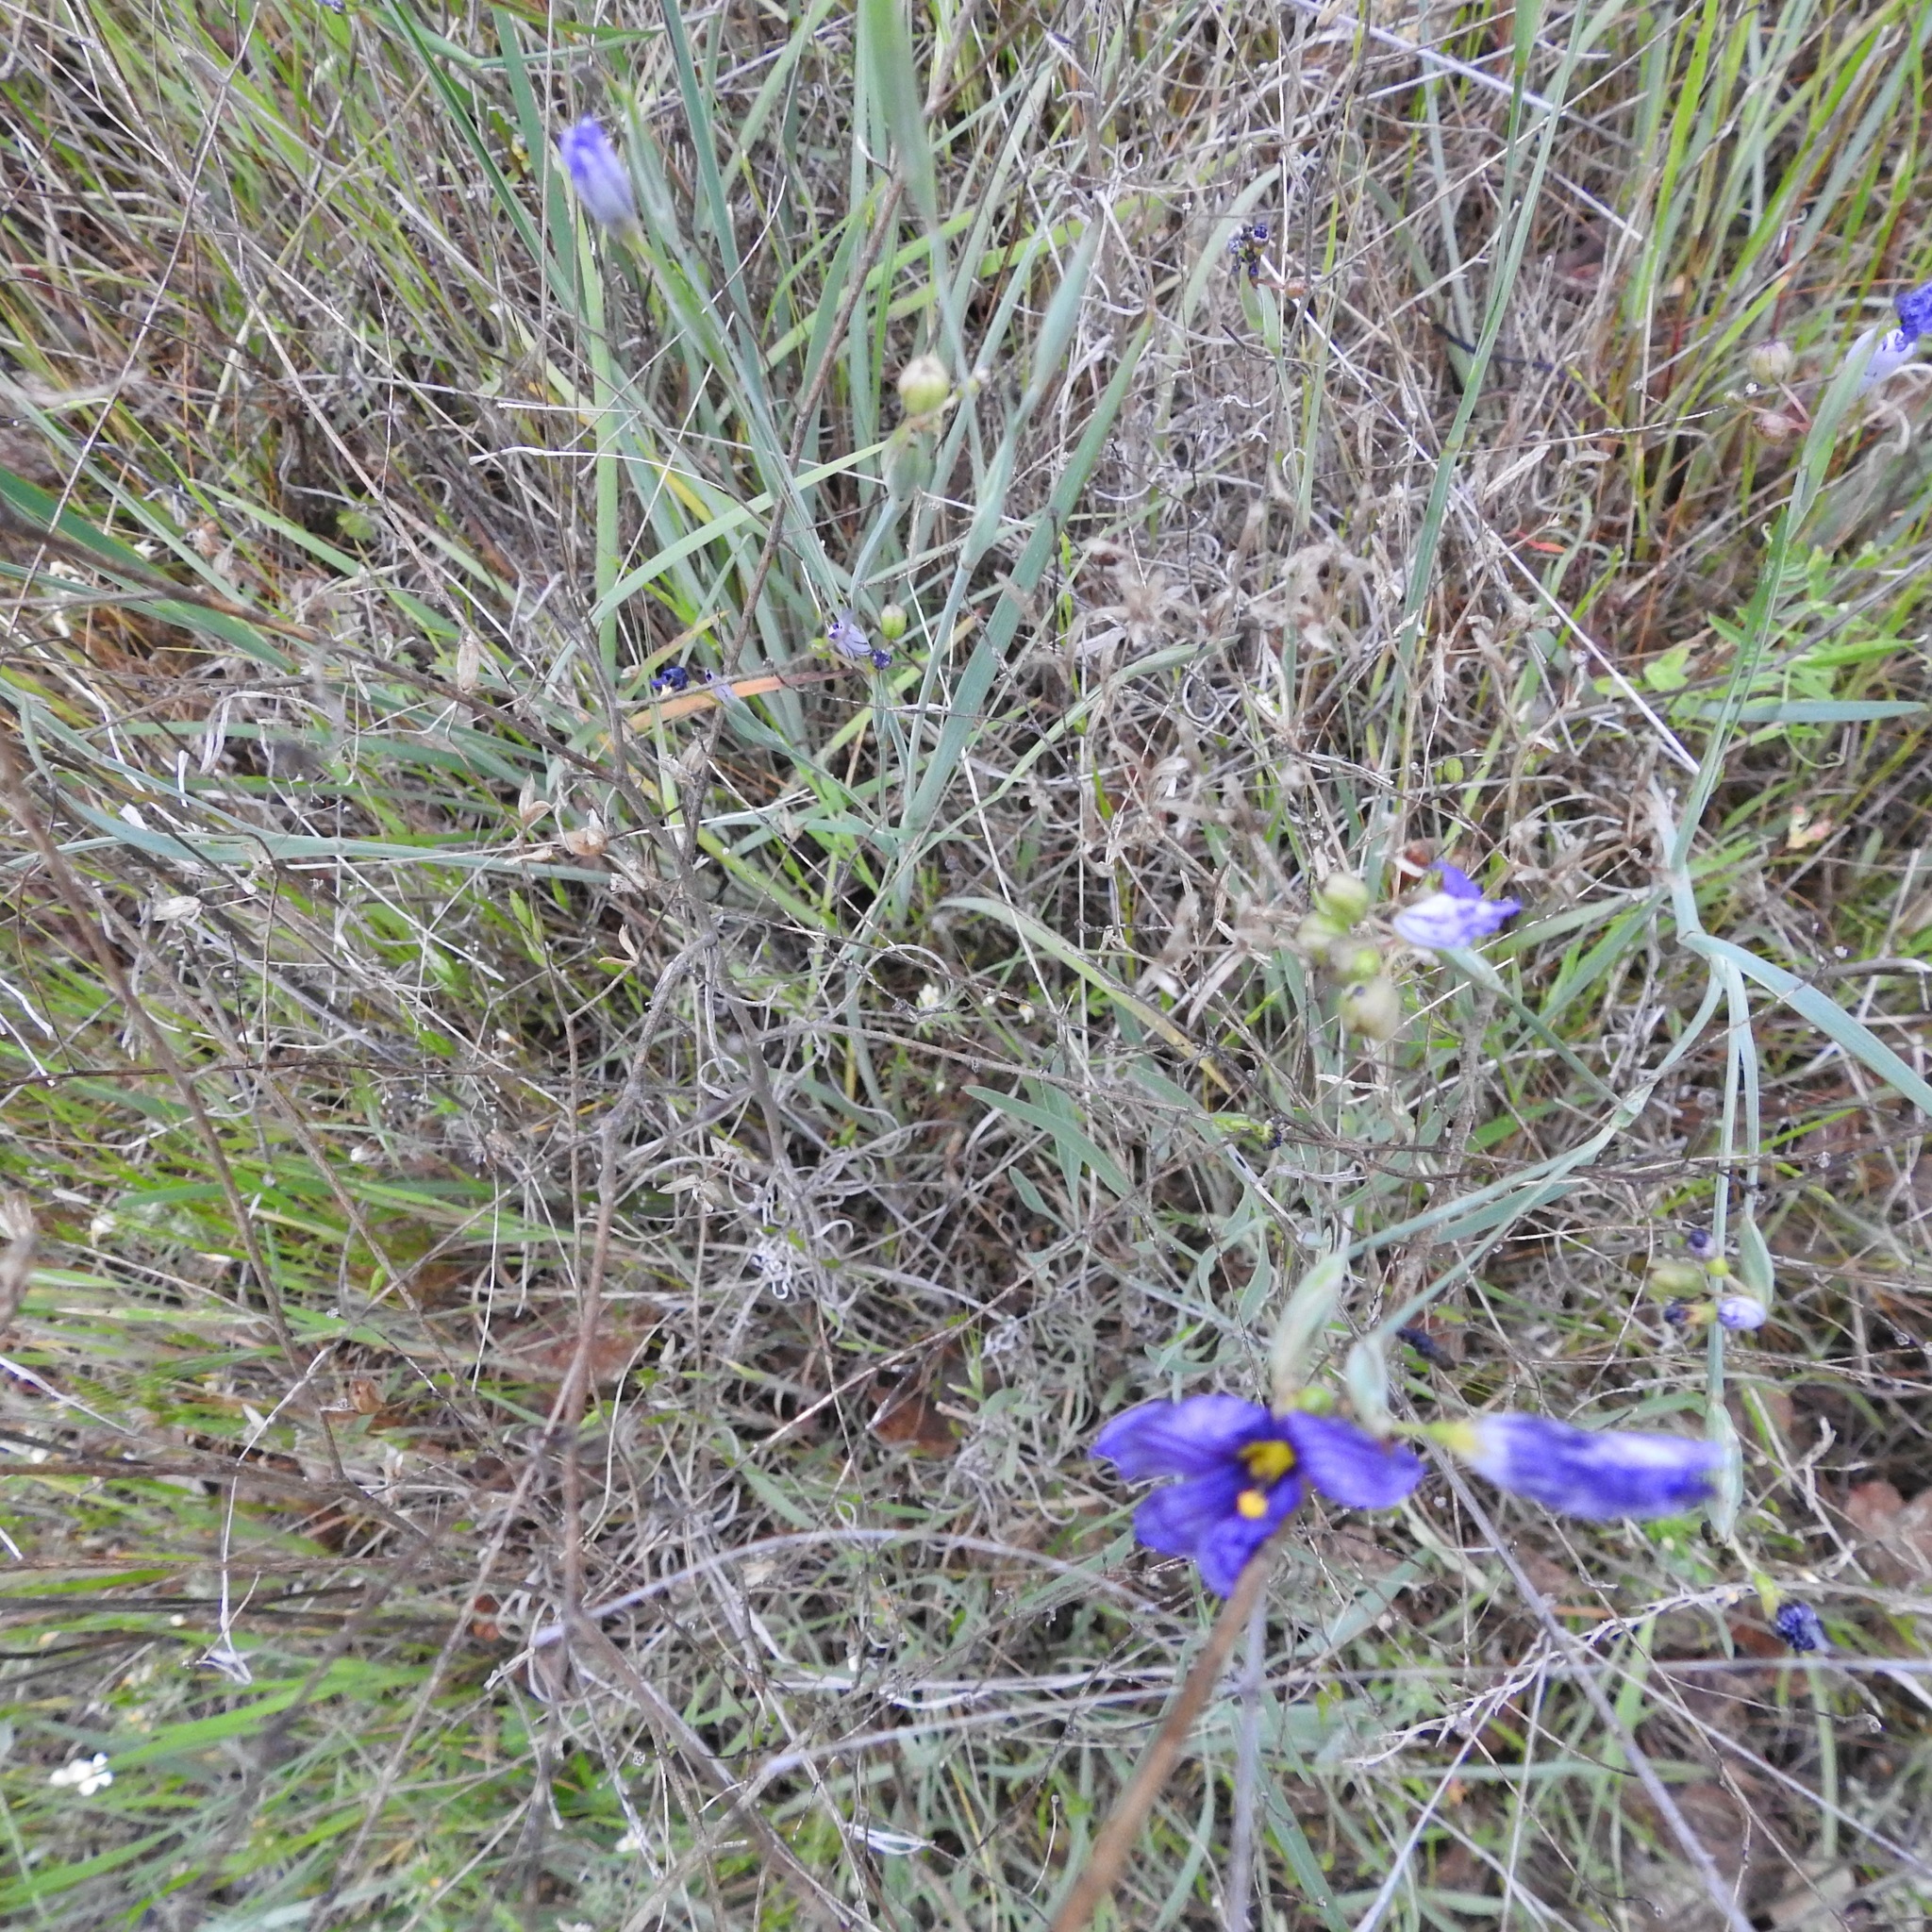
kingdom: Plantae
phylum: Tracheophyta
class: Liliopsida
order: Asparagales
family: Iridaceae
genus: Sisyrinchium
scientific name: Sisyrinchium bellum
